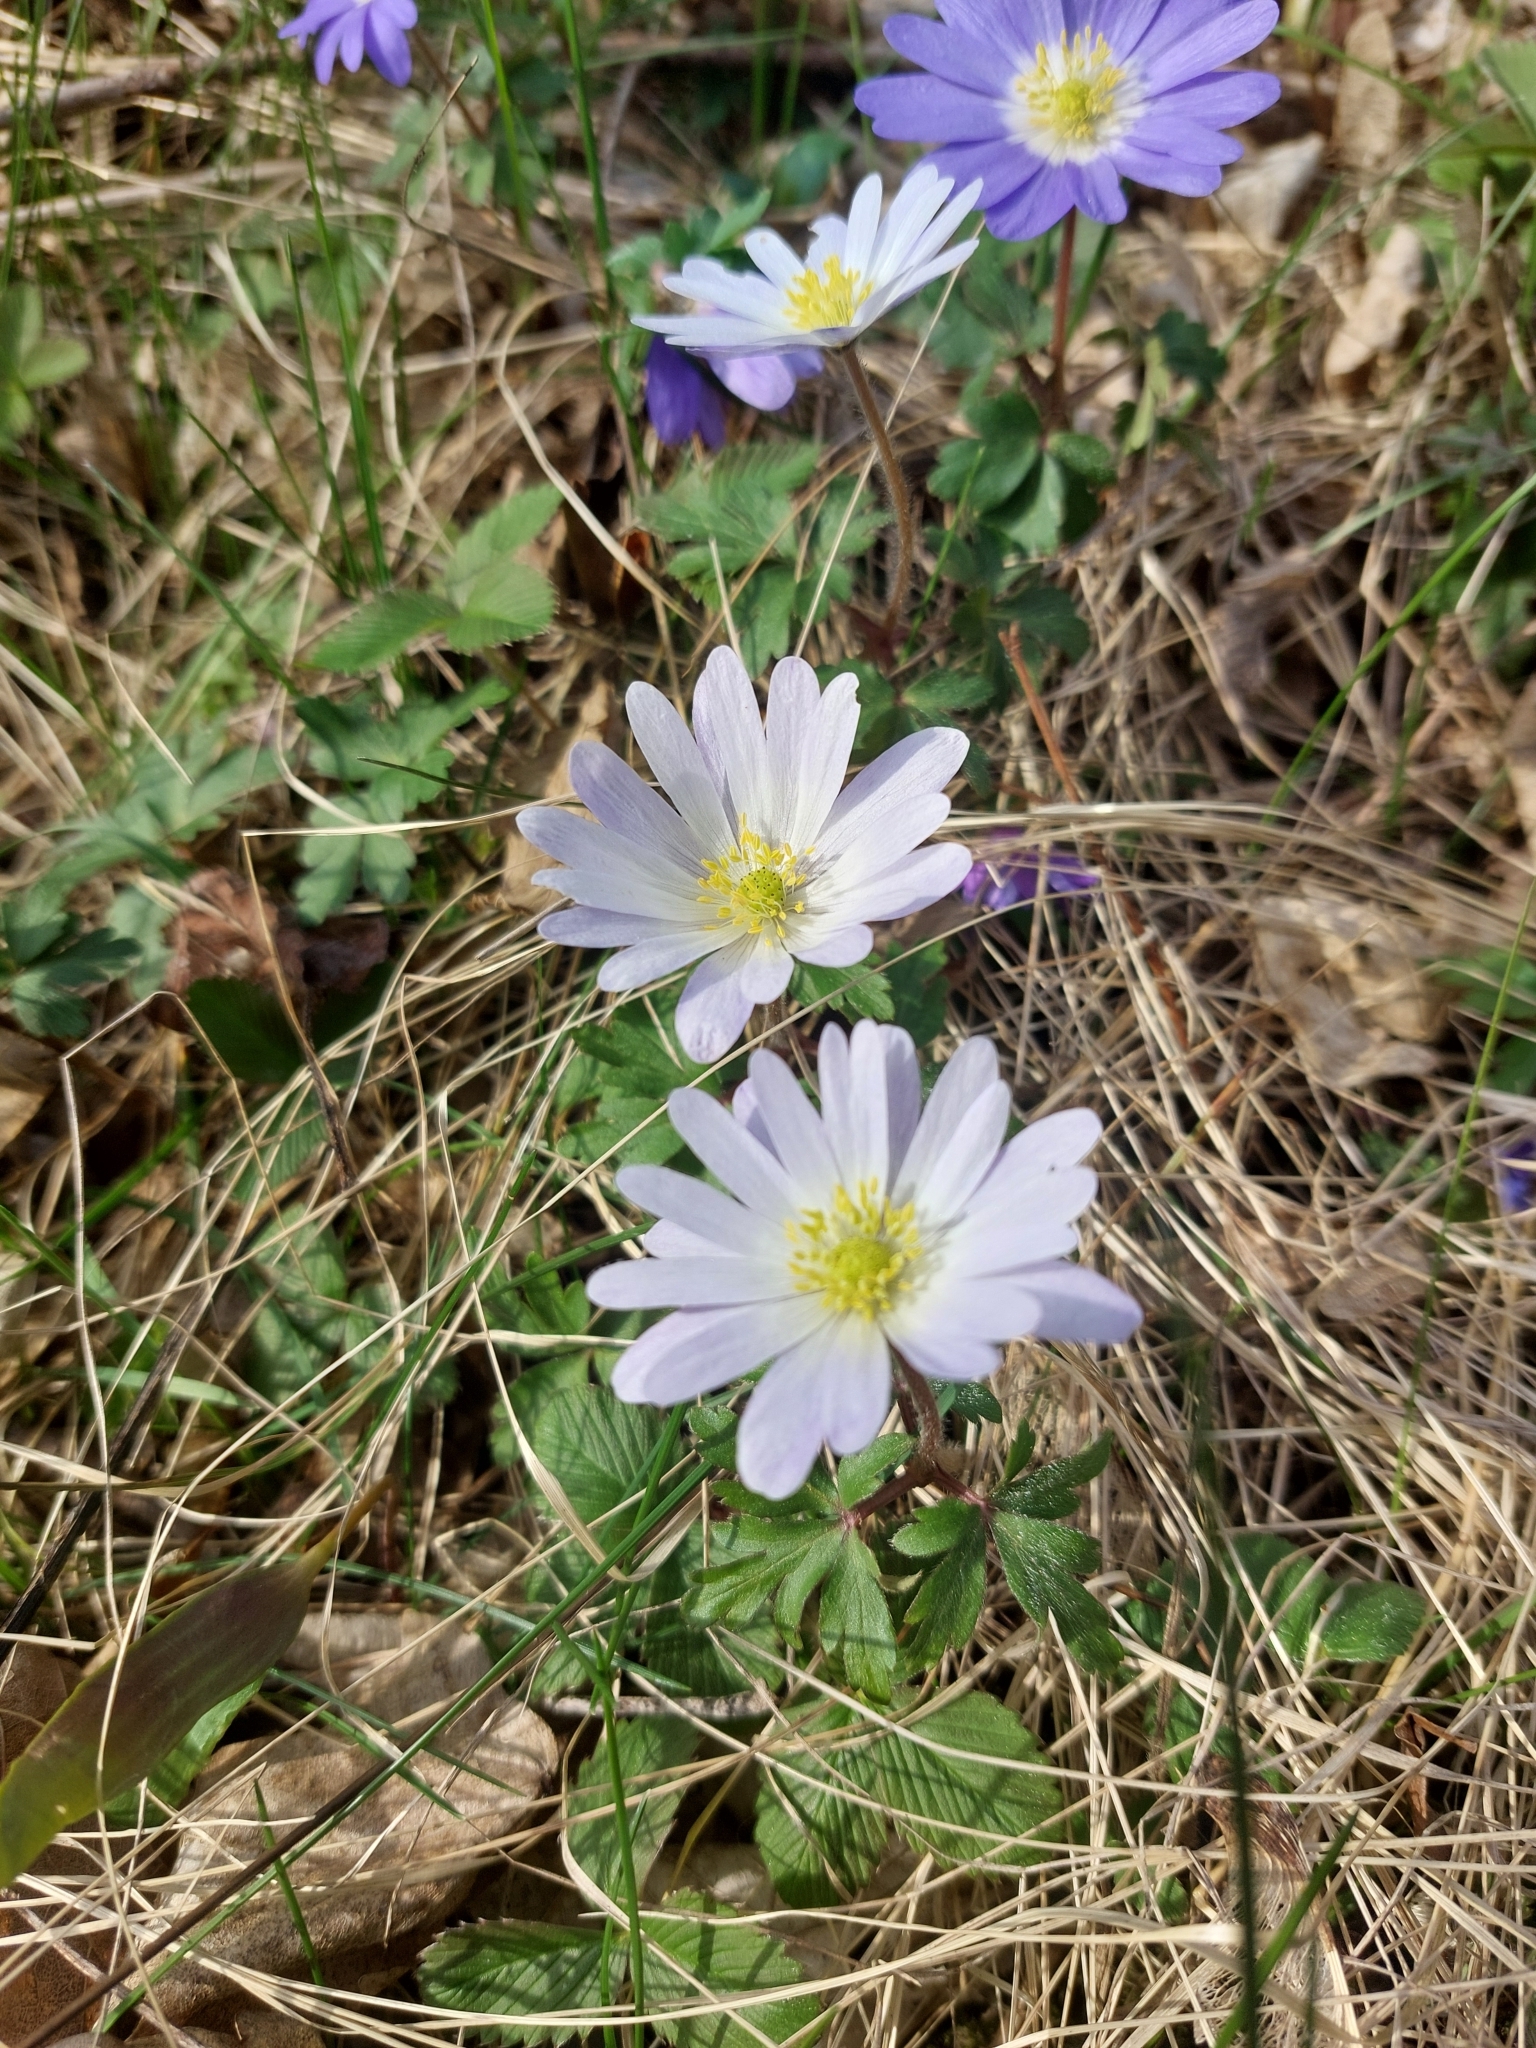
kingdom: Plantae
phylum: Tracheophyta
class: Magnoliopsida
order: Ranunculales
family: Ranunculaceae
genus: Anemone
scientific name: Anemone blanda
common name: Balkan anemone
